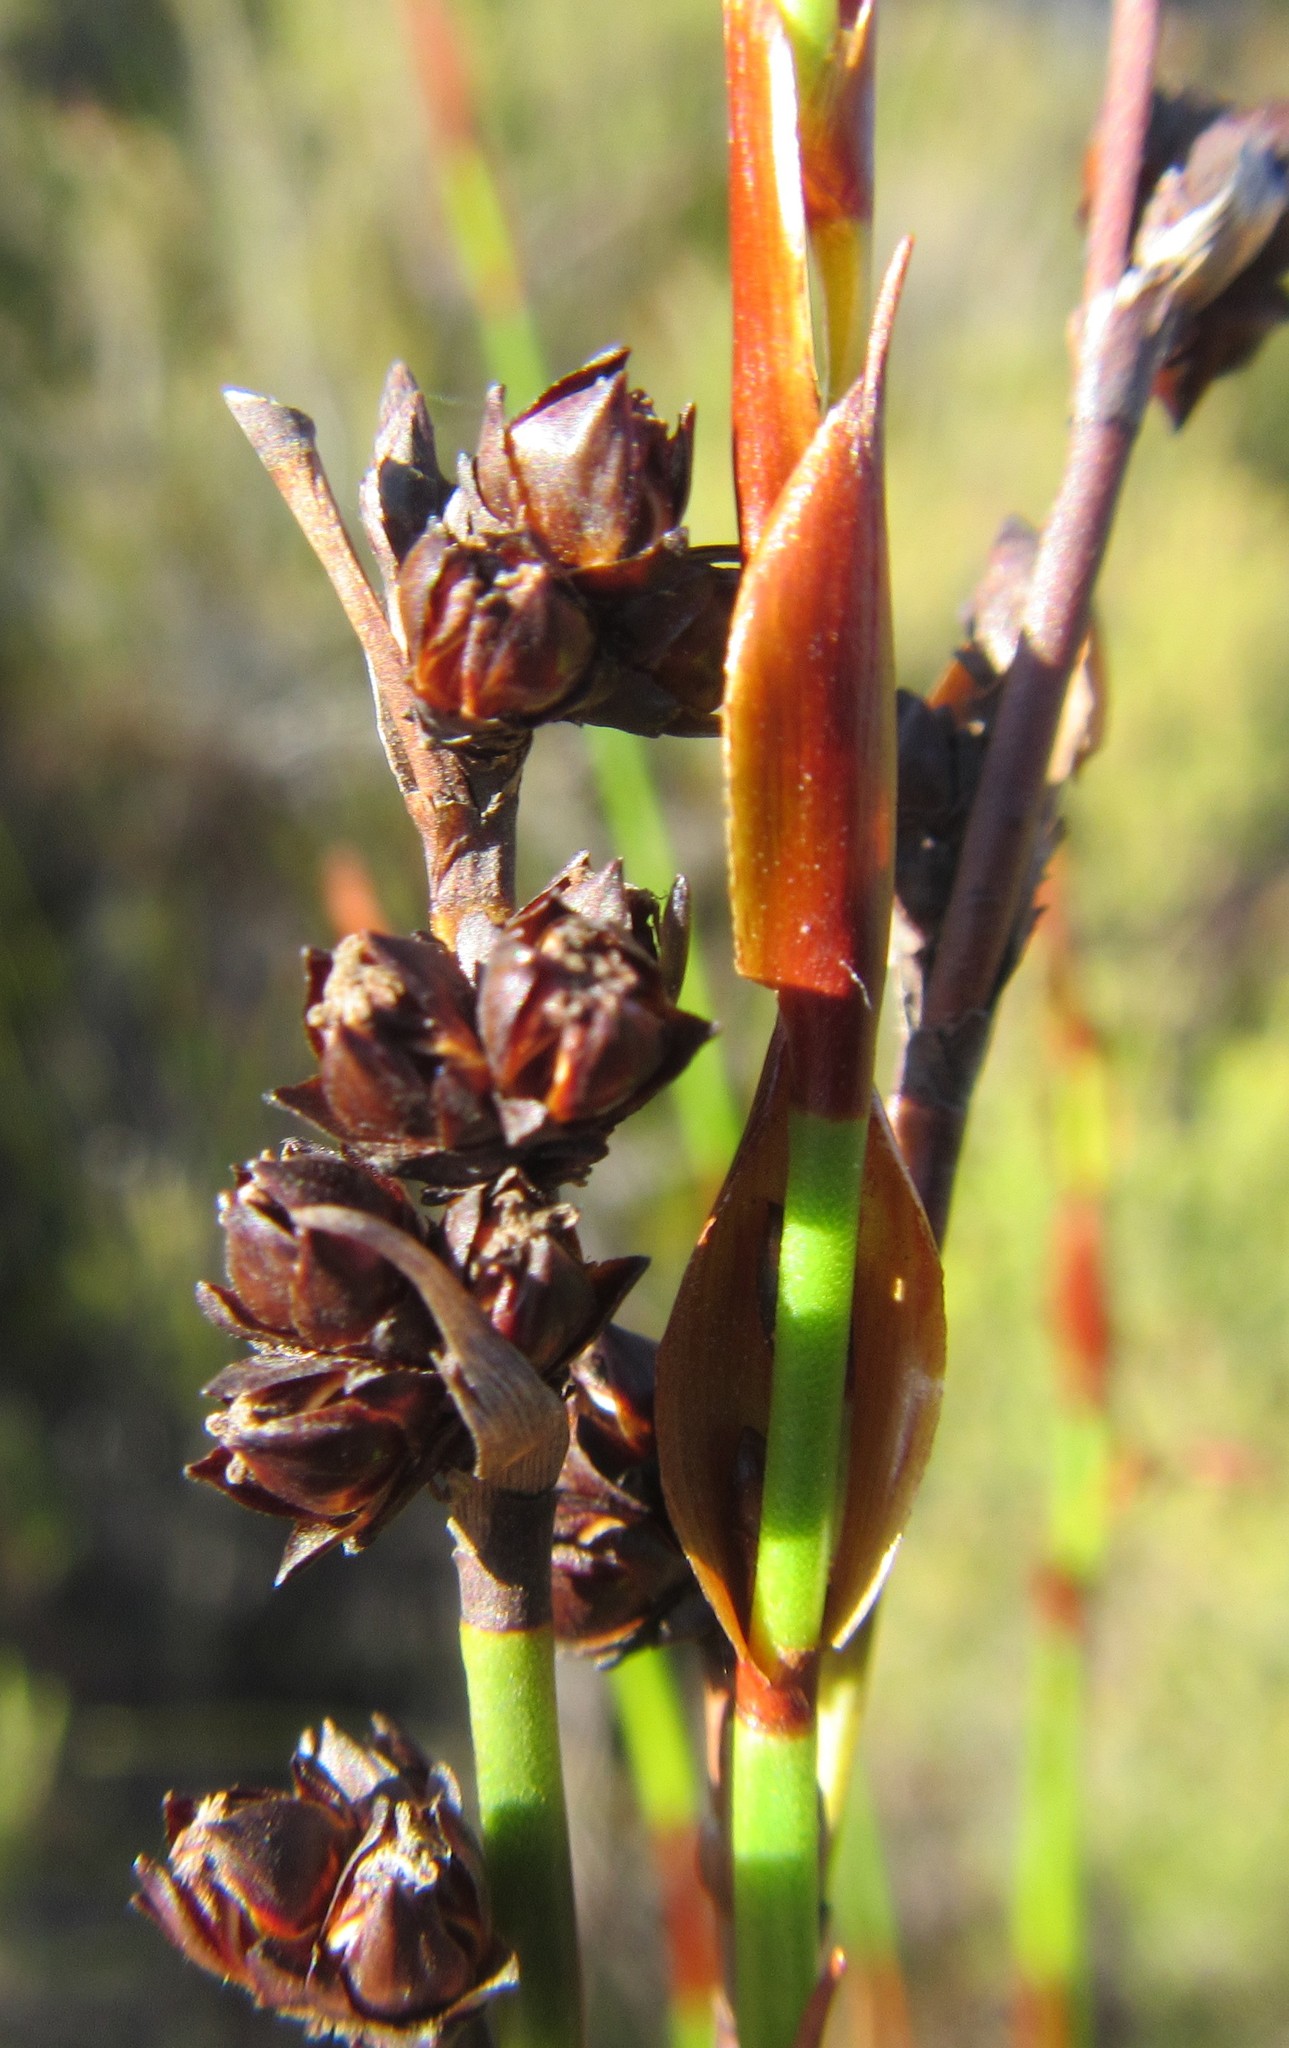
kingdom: Plantae
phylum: Tracheophyta
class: Liliopsida
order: Poales
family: Restionaceae
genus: Elegia
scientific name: Elegia ebracteata
